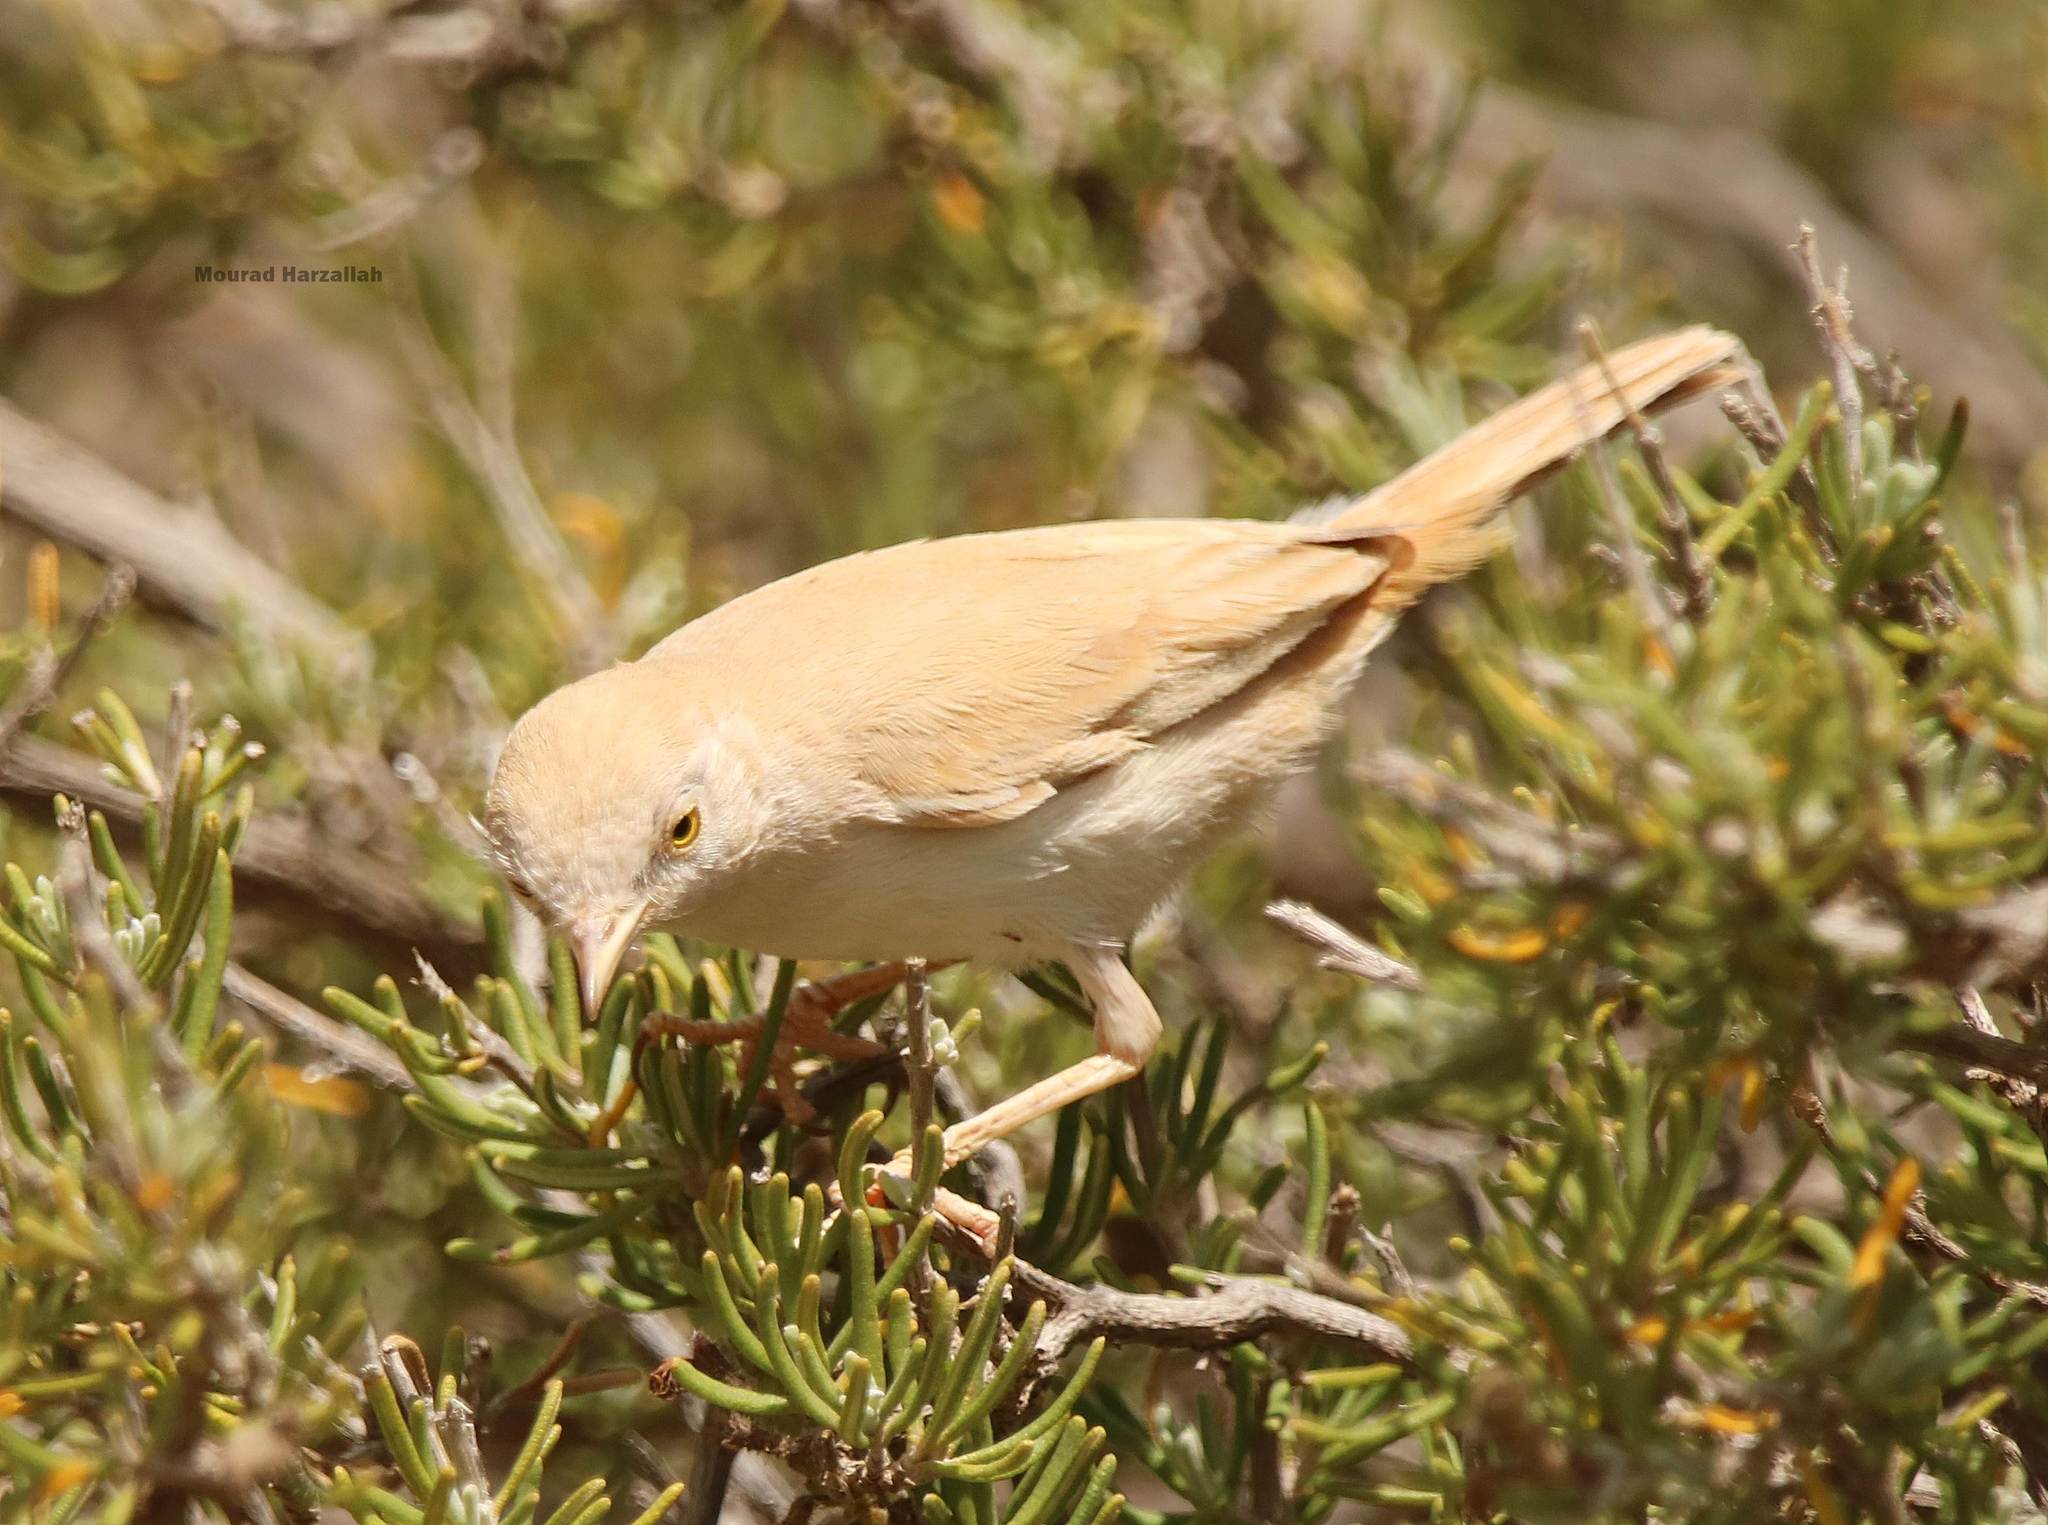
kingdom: Animalia
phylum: Chordata
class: Aves
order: Passeriformes
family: Sylviidae
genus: Sylvia
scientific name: Sylvia deserti
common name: African desert warbler
